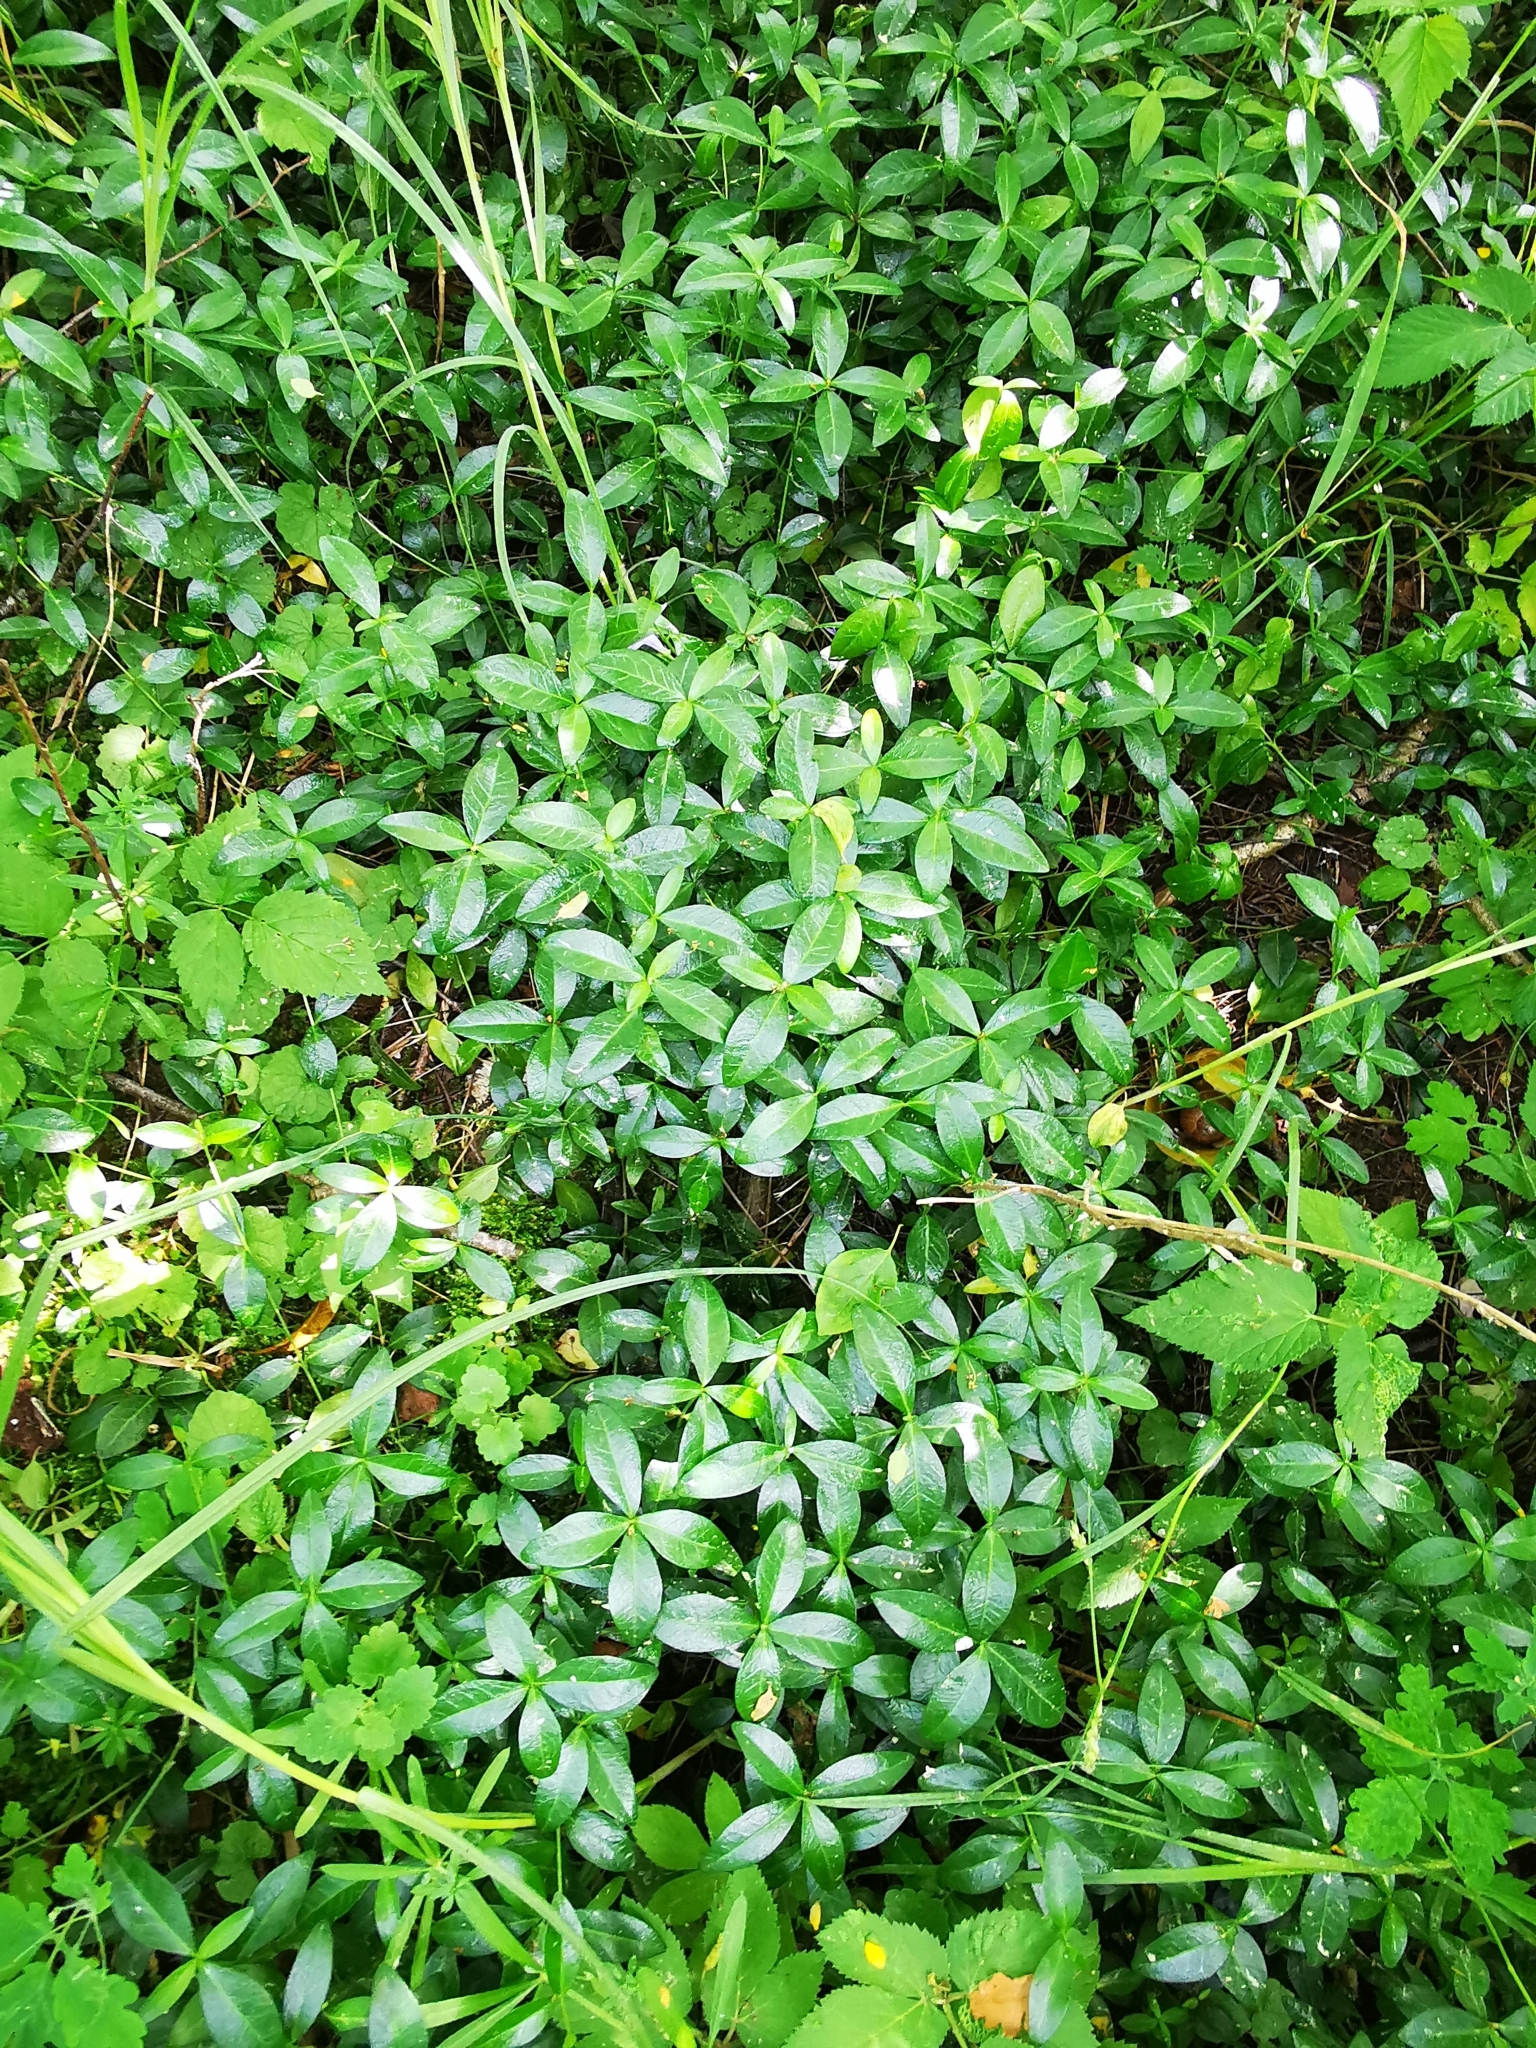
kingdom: Plantae
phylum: Tracheophyta
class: Magnoliopsida
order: Gentianales
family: Apocynaceae
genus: Vinca
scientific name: Vinca minor
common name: Lesser periwinkle
